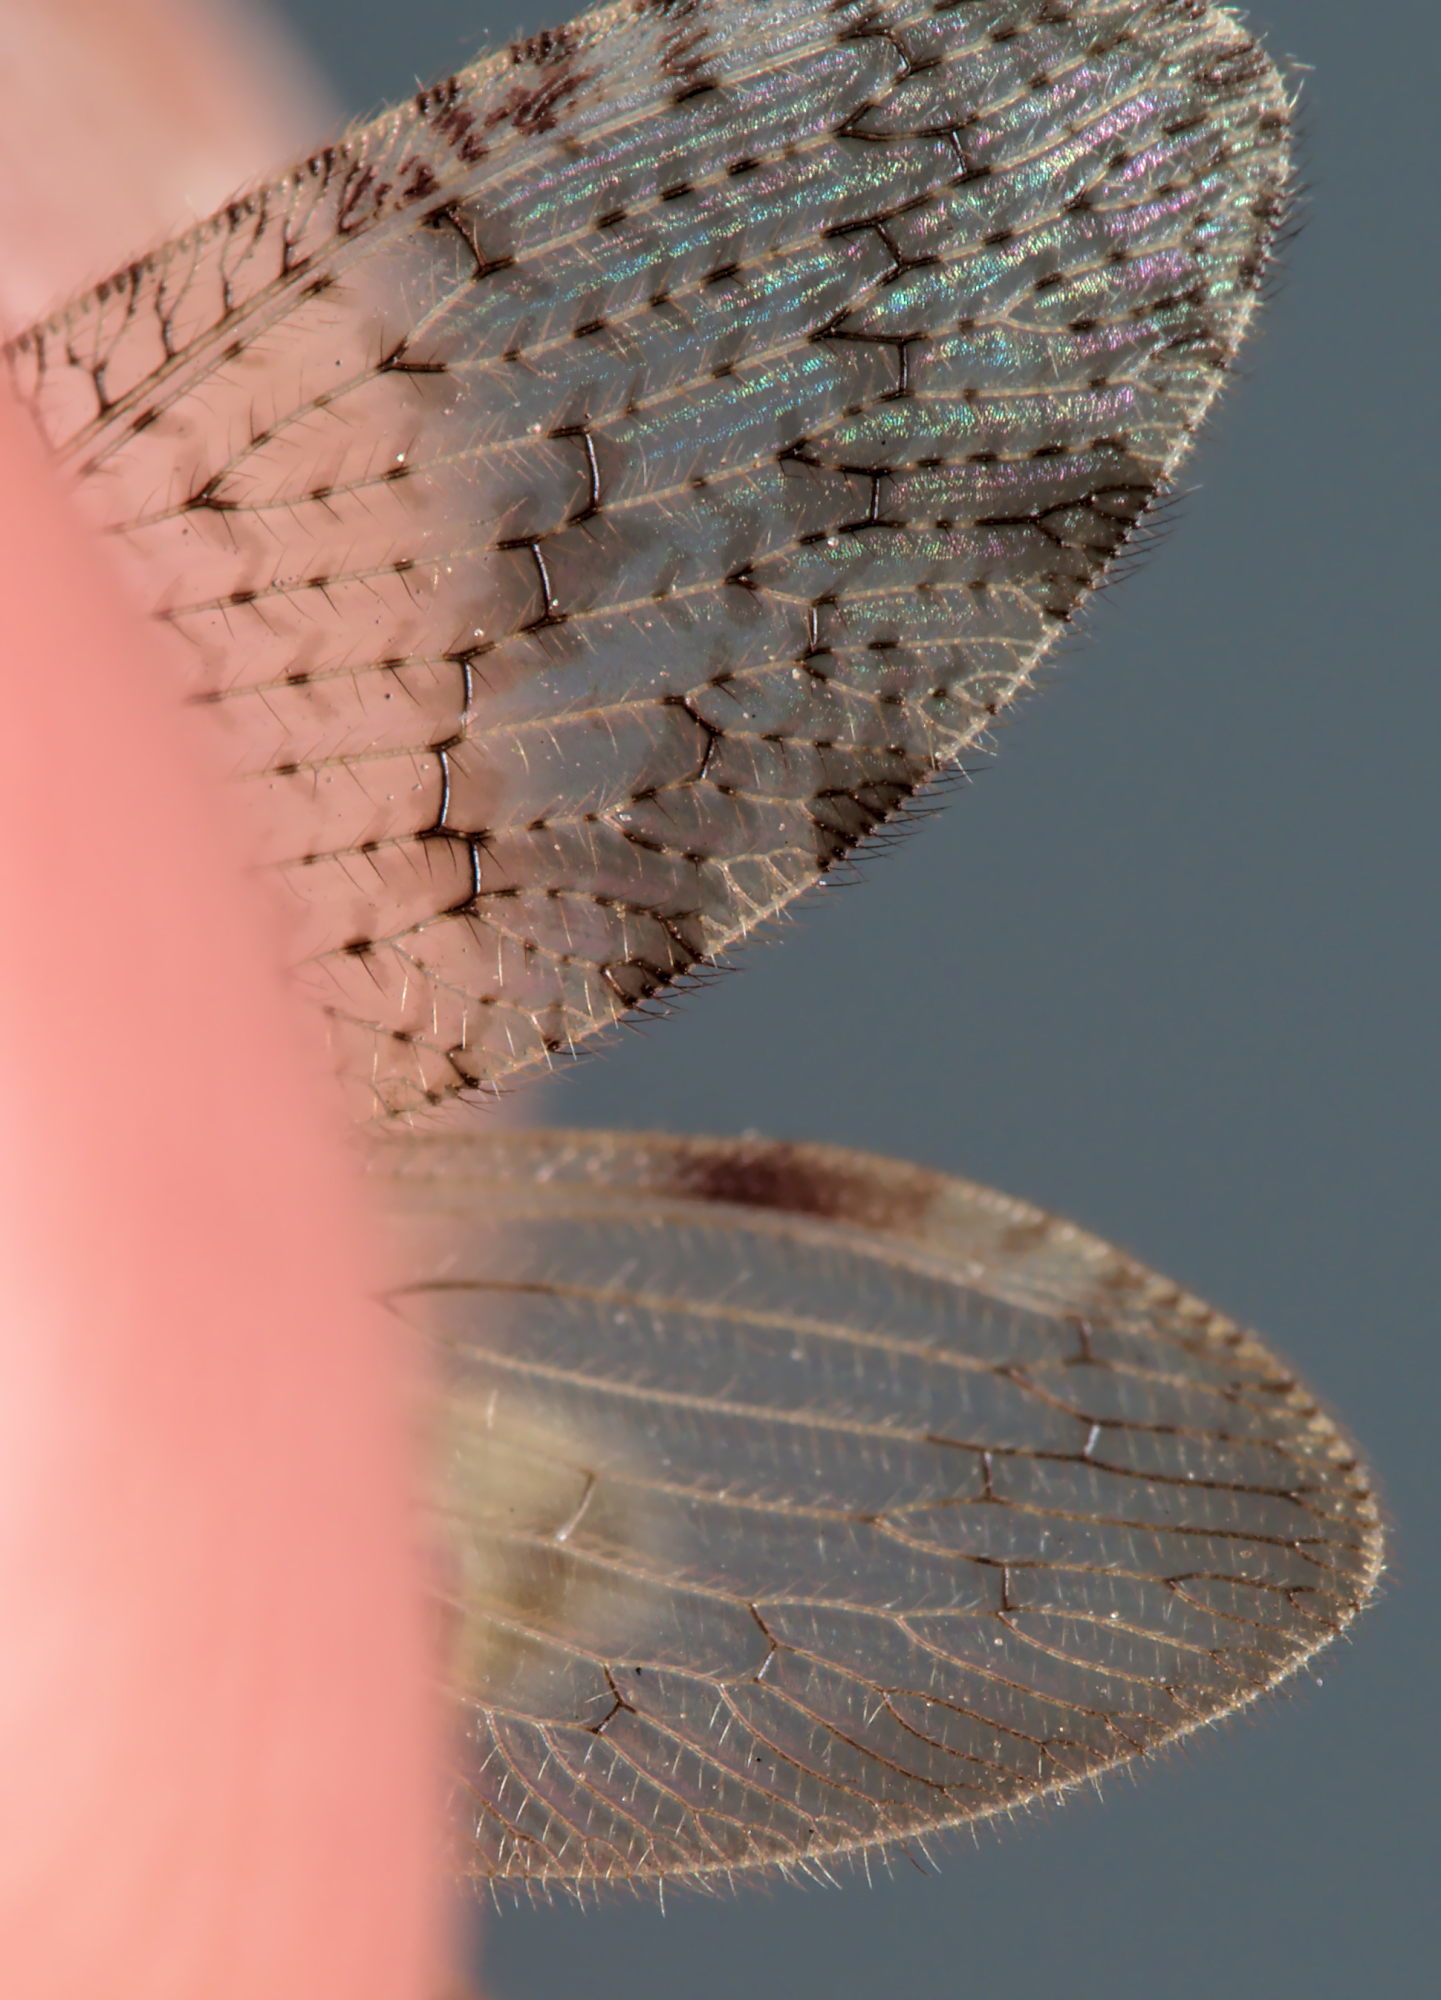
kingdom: Animalia
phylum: Arthropoda
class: Insecta
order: Neuroptera
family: Hemerobiidae
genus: Hemerobius
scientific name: Hemerobius humulinus
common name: Humulin brown lacewing
